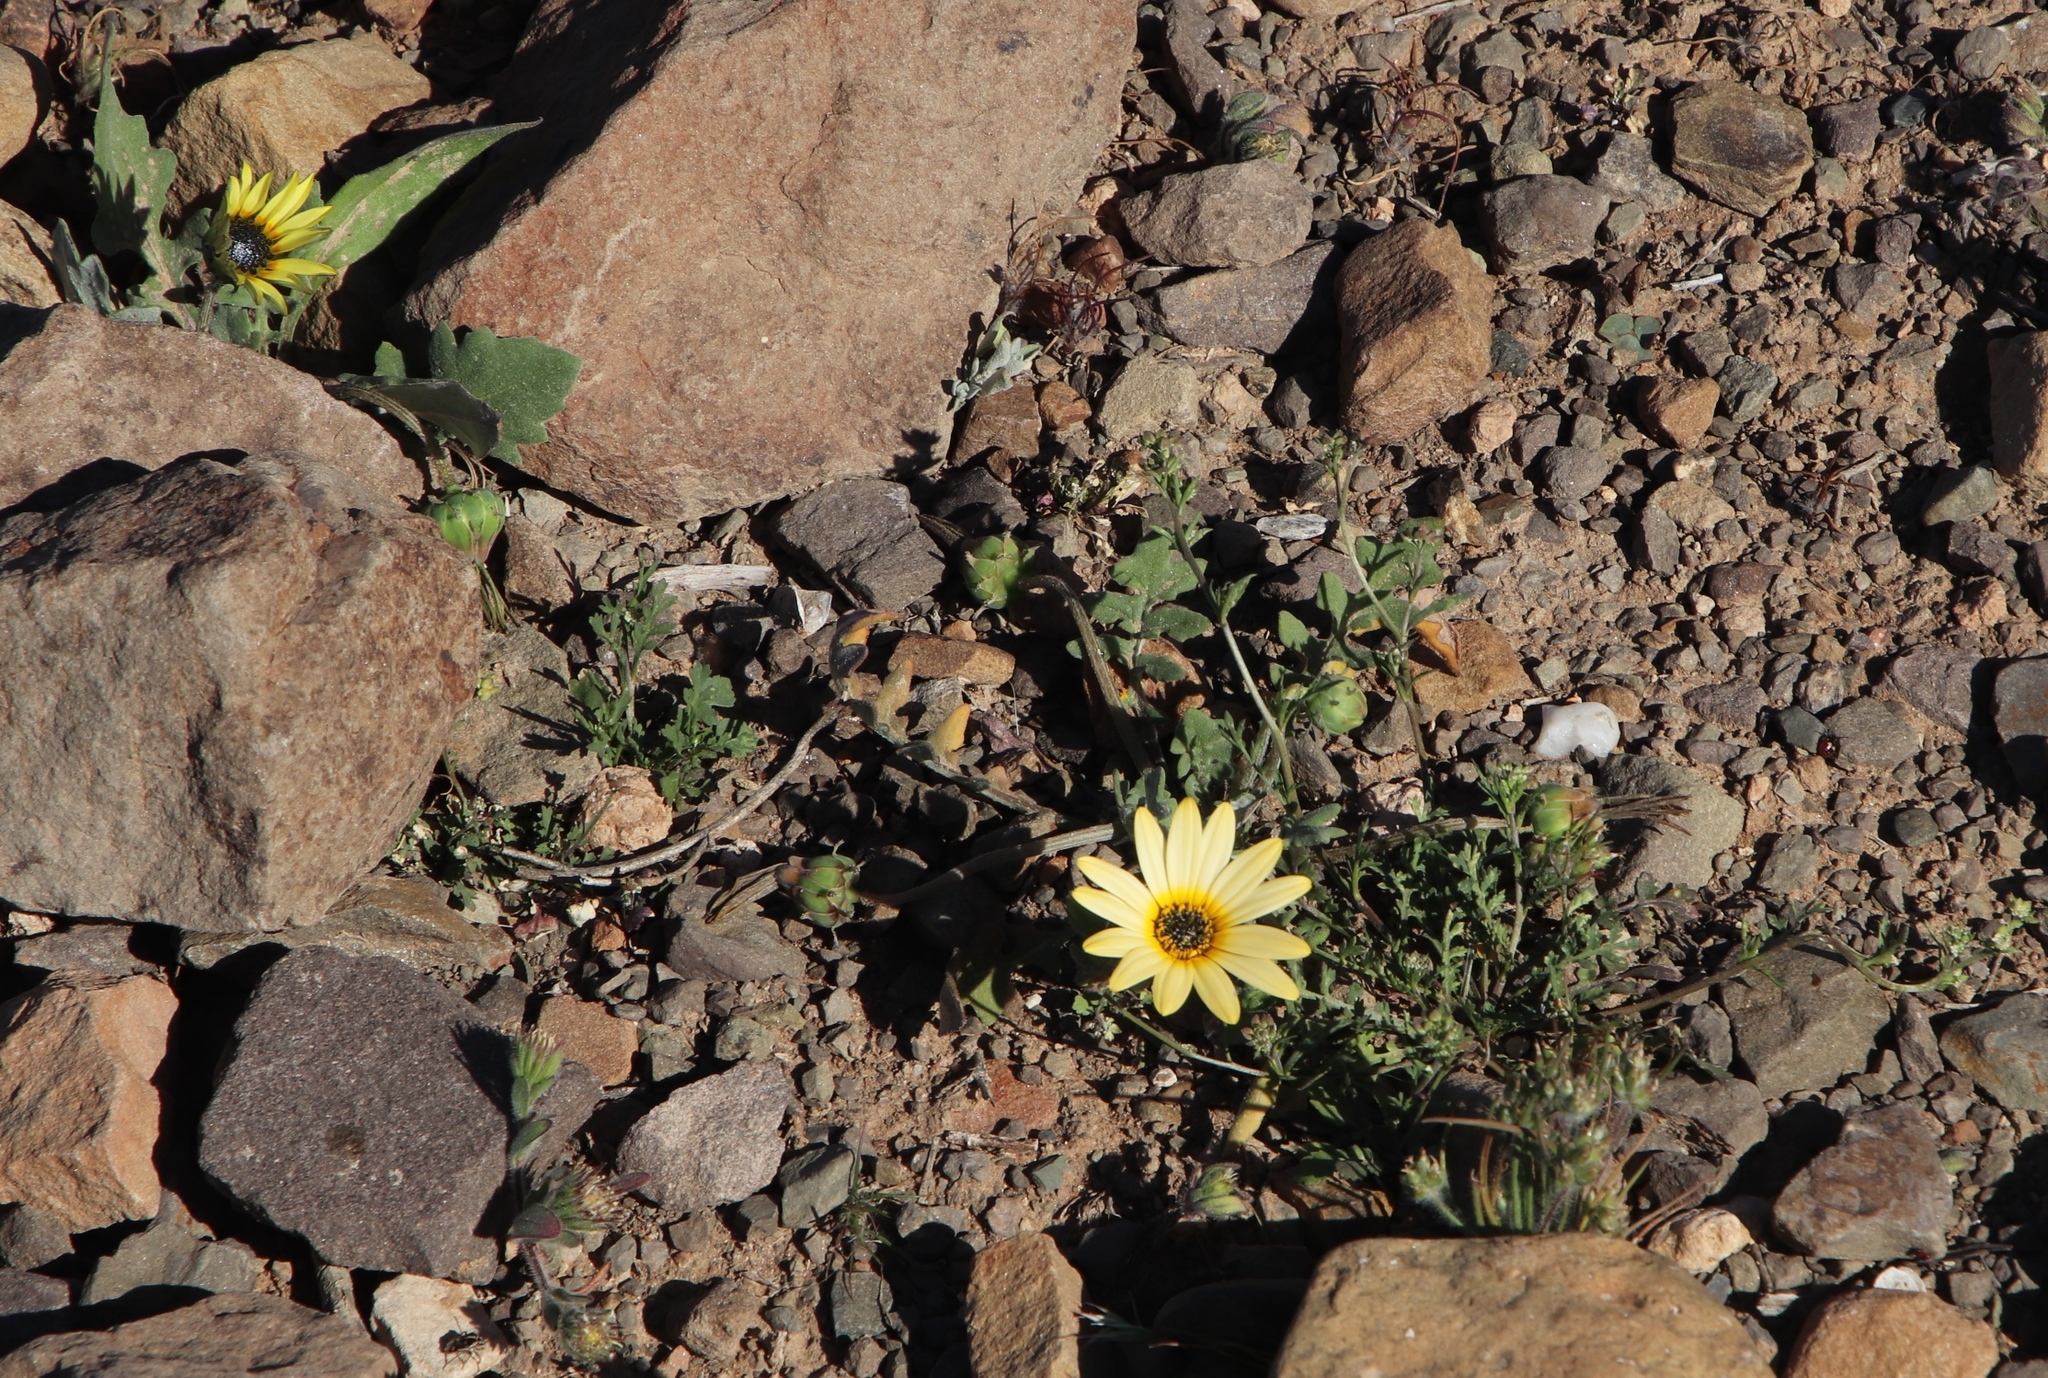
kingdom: Plantae
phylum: Tracheophyta
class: Magnoliopsida
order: Asterales
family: Asteraceae
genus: Arctotheca
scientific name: Arctotheca calendula
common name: Capeweed
